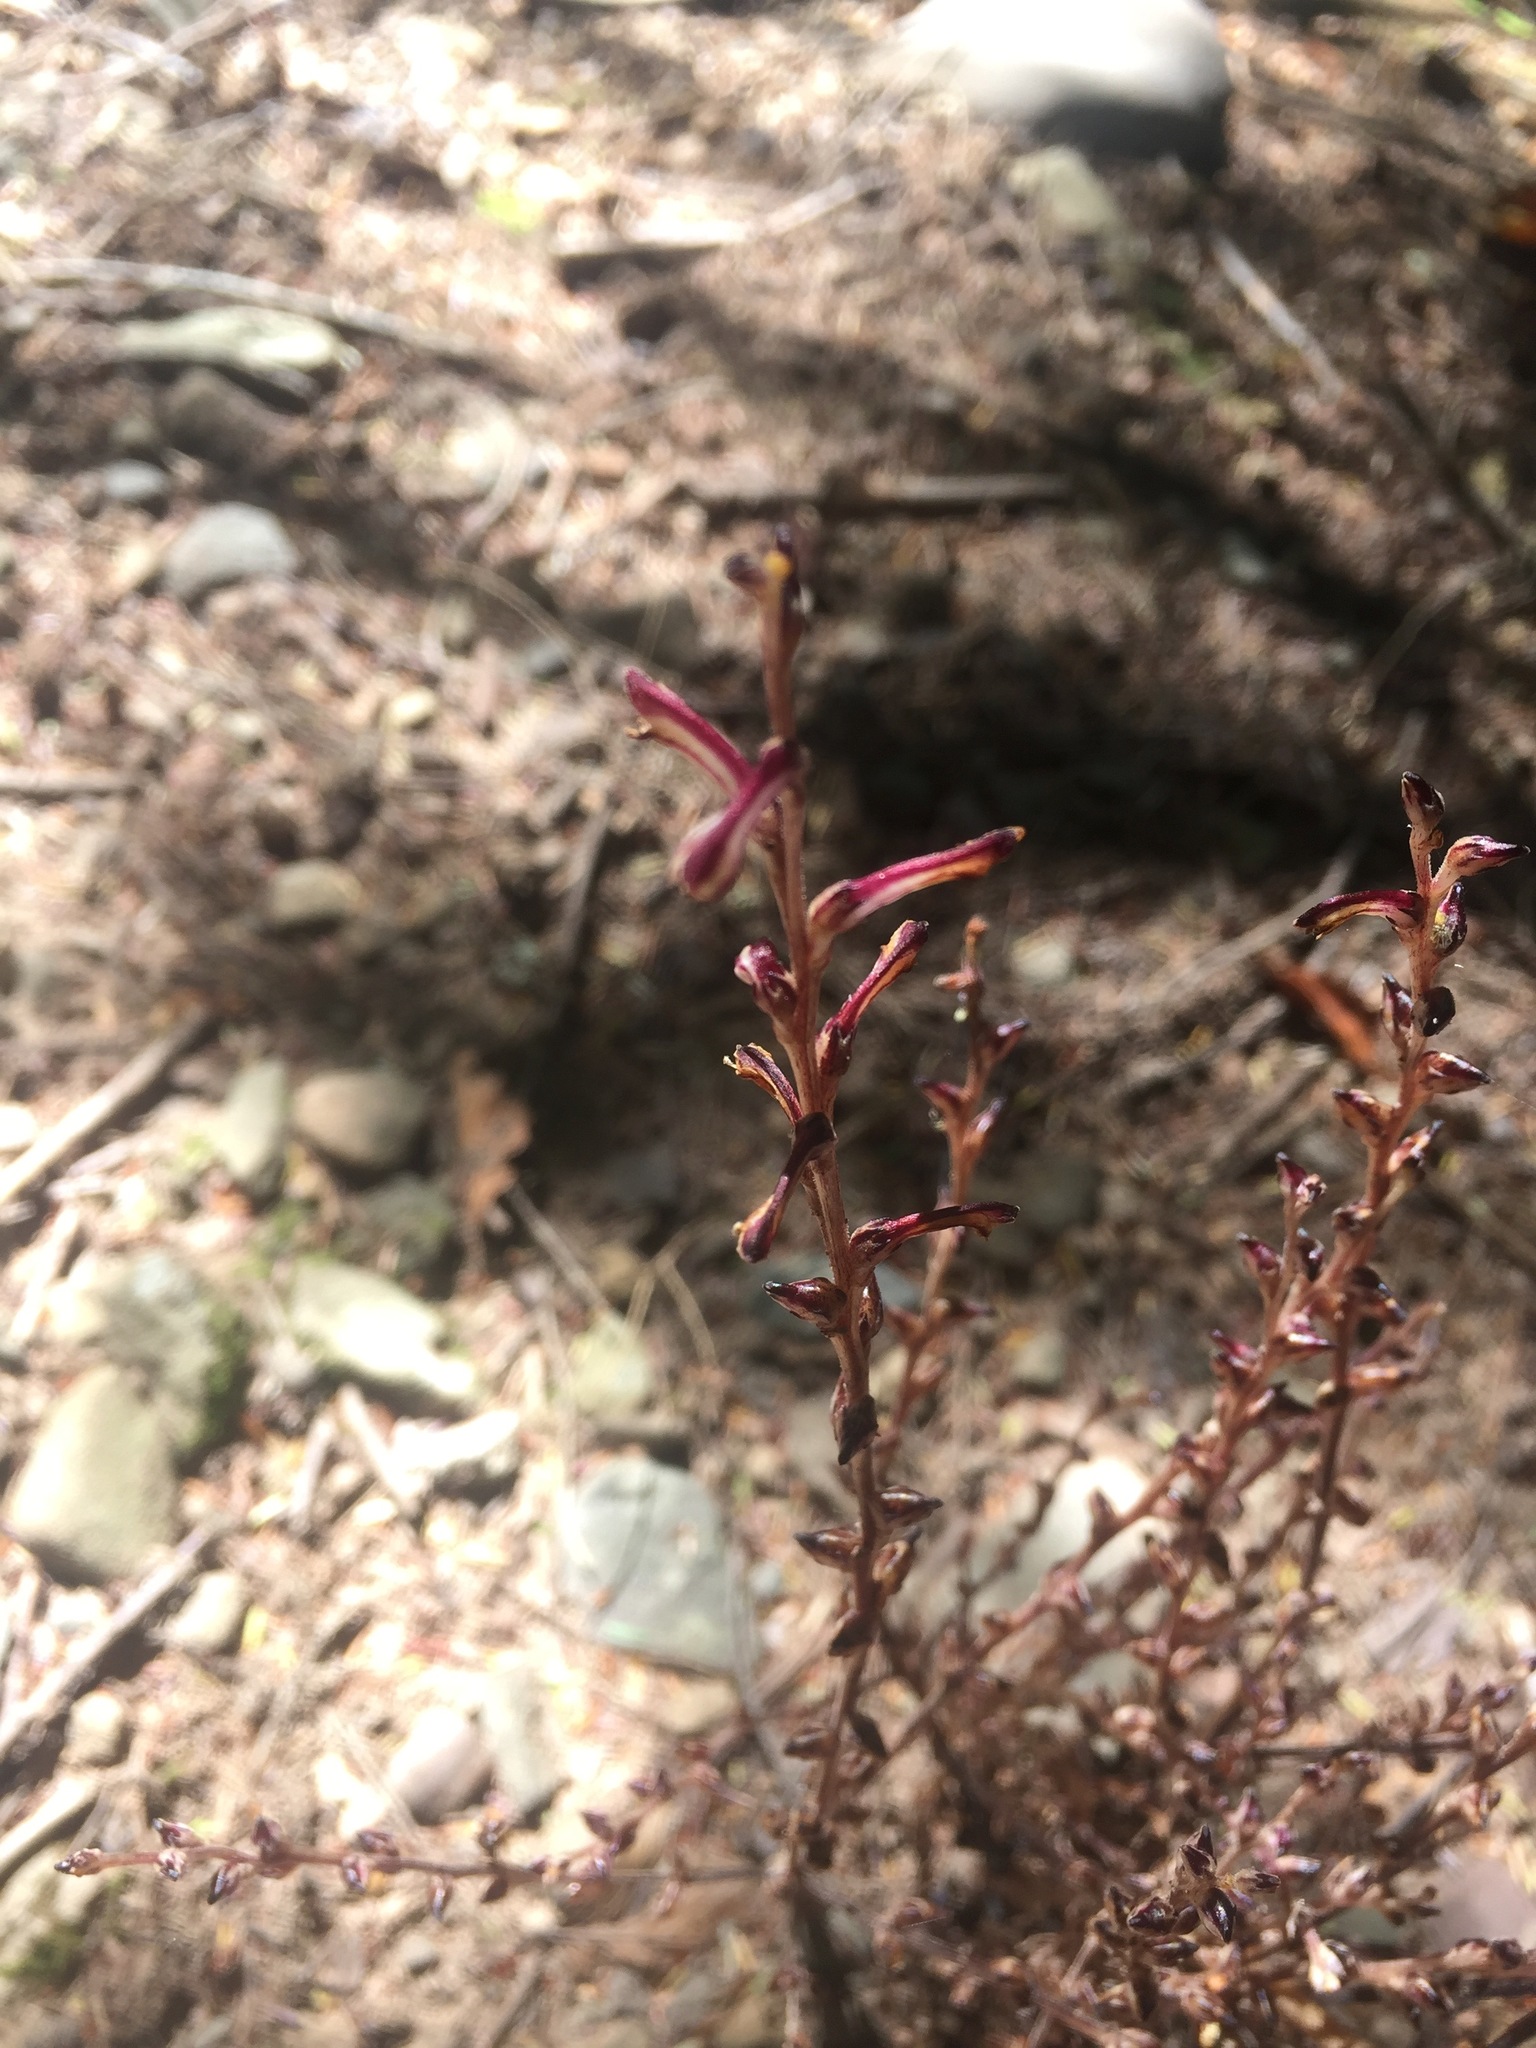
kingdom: Plantae
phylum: Tracheophyta
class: Magnoliopsida
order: Lamiales
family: Orobanchaceae
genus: Epifagus
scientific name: Epifagus virginiana
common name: Beechdrops
